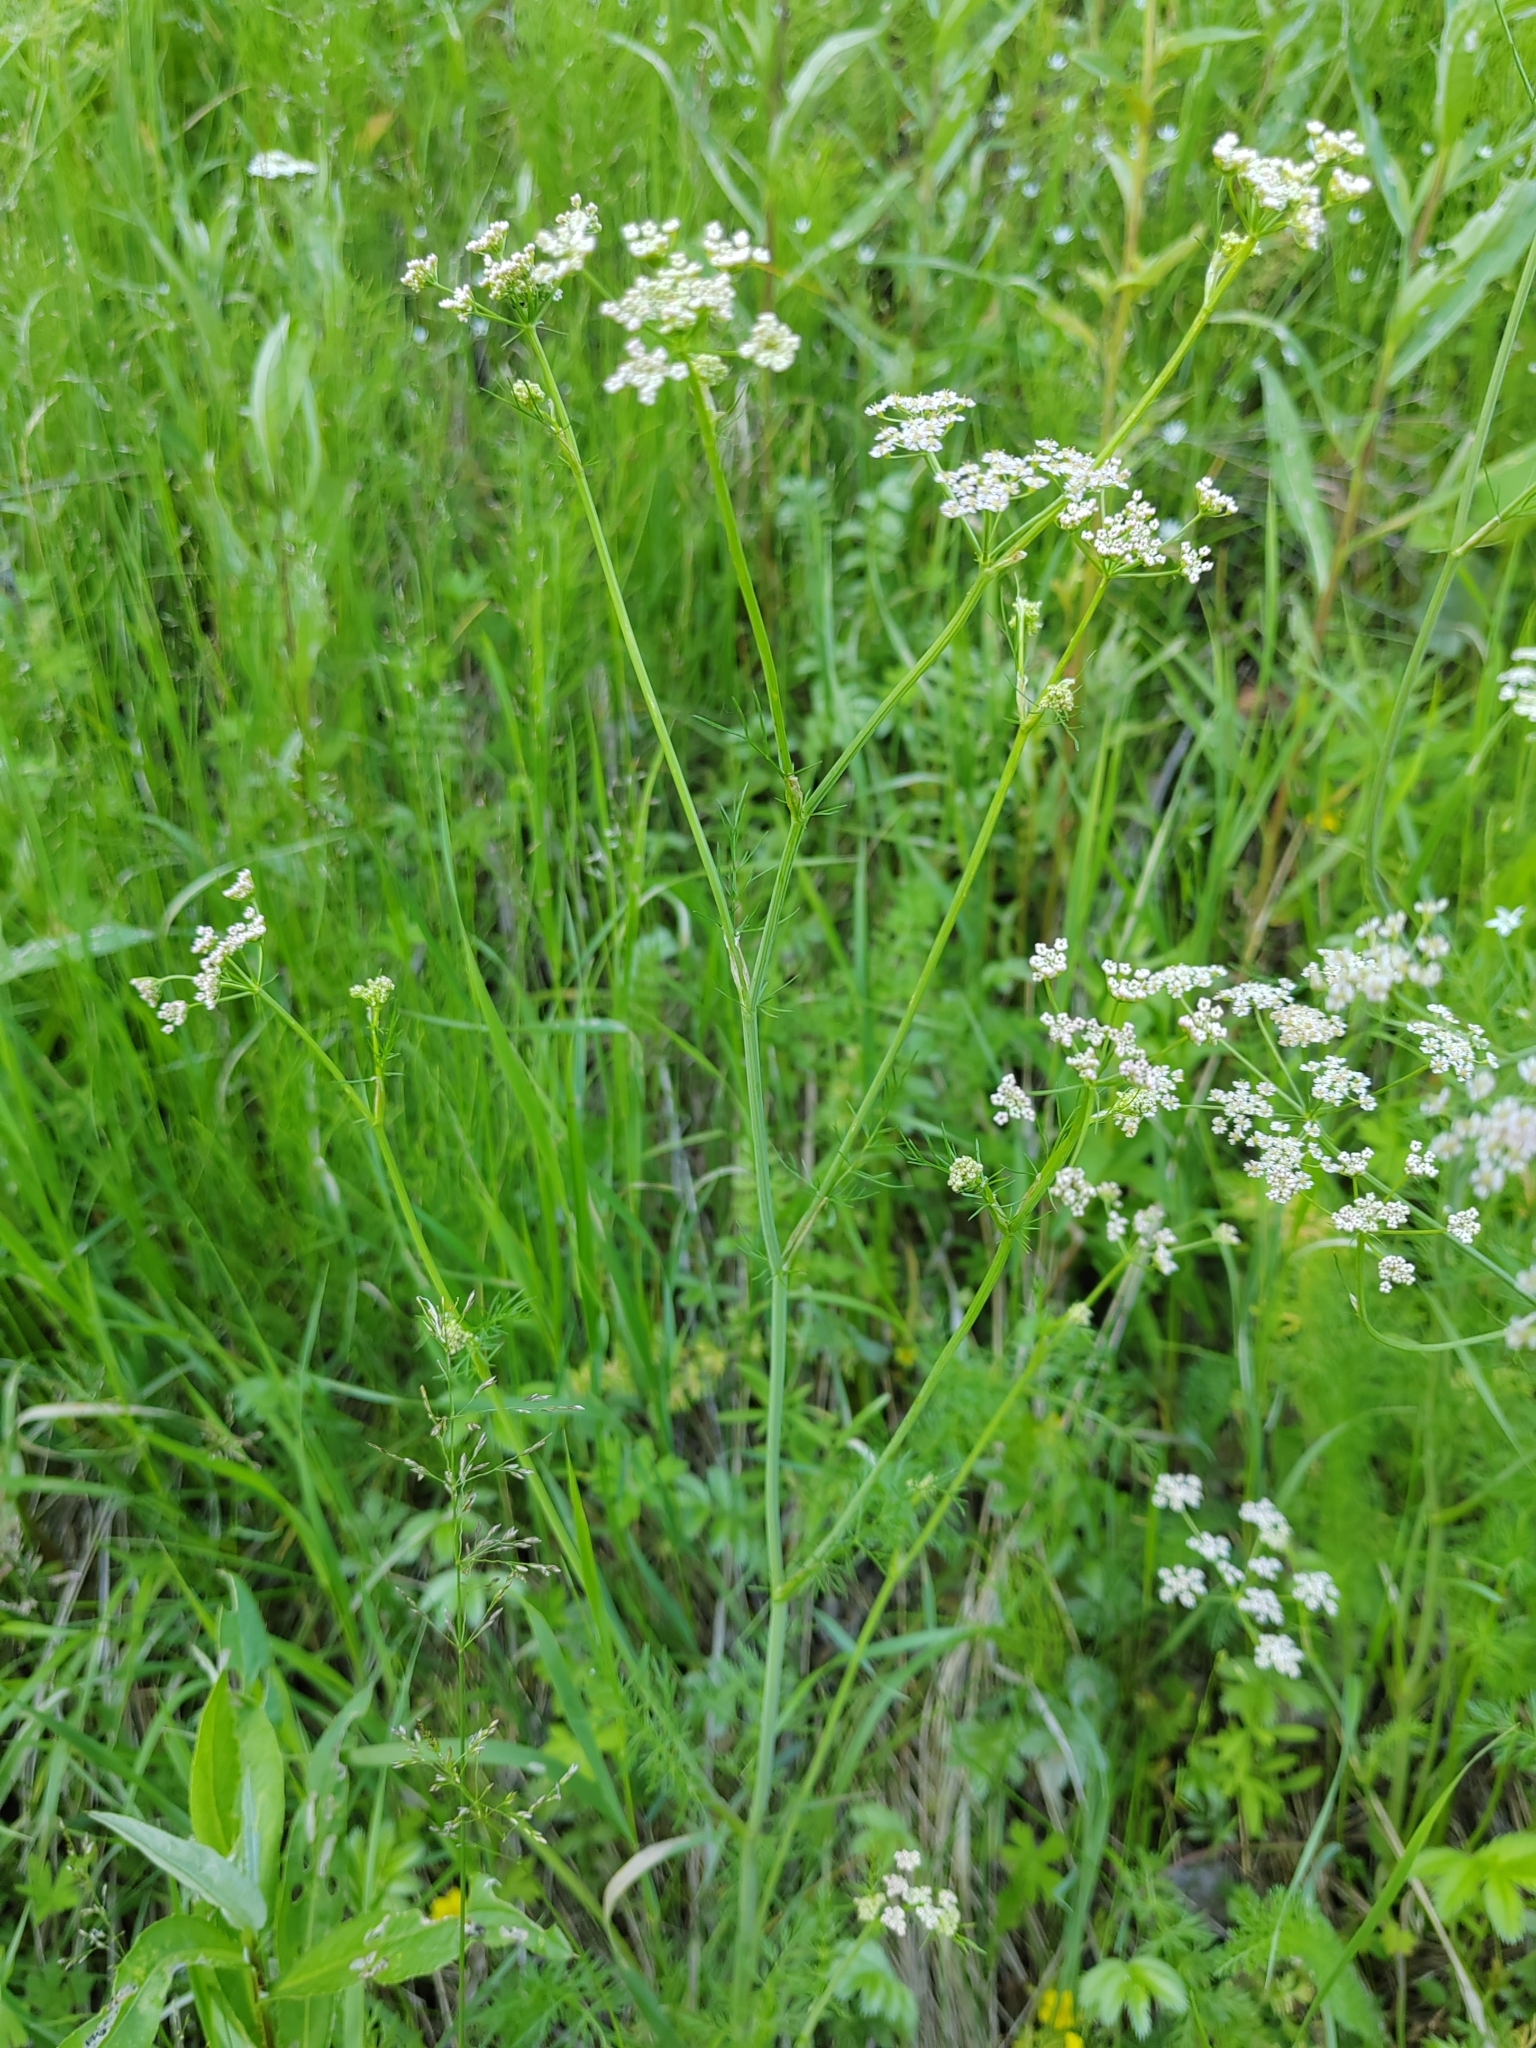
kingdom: Plantae
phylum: Tracheophyta
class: Magnoliopsida
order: Apiales
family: Apiaceae
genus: Carum
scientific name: Carum carvi
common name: Caraway
